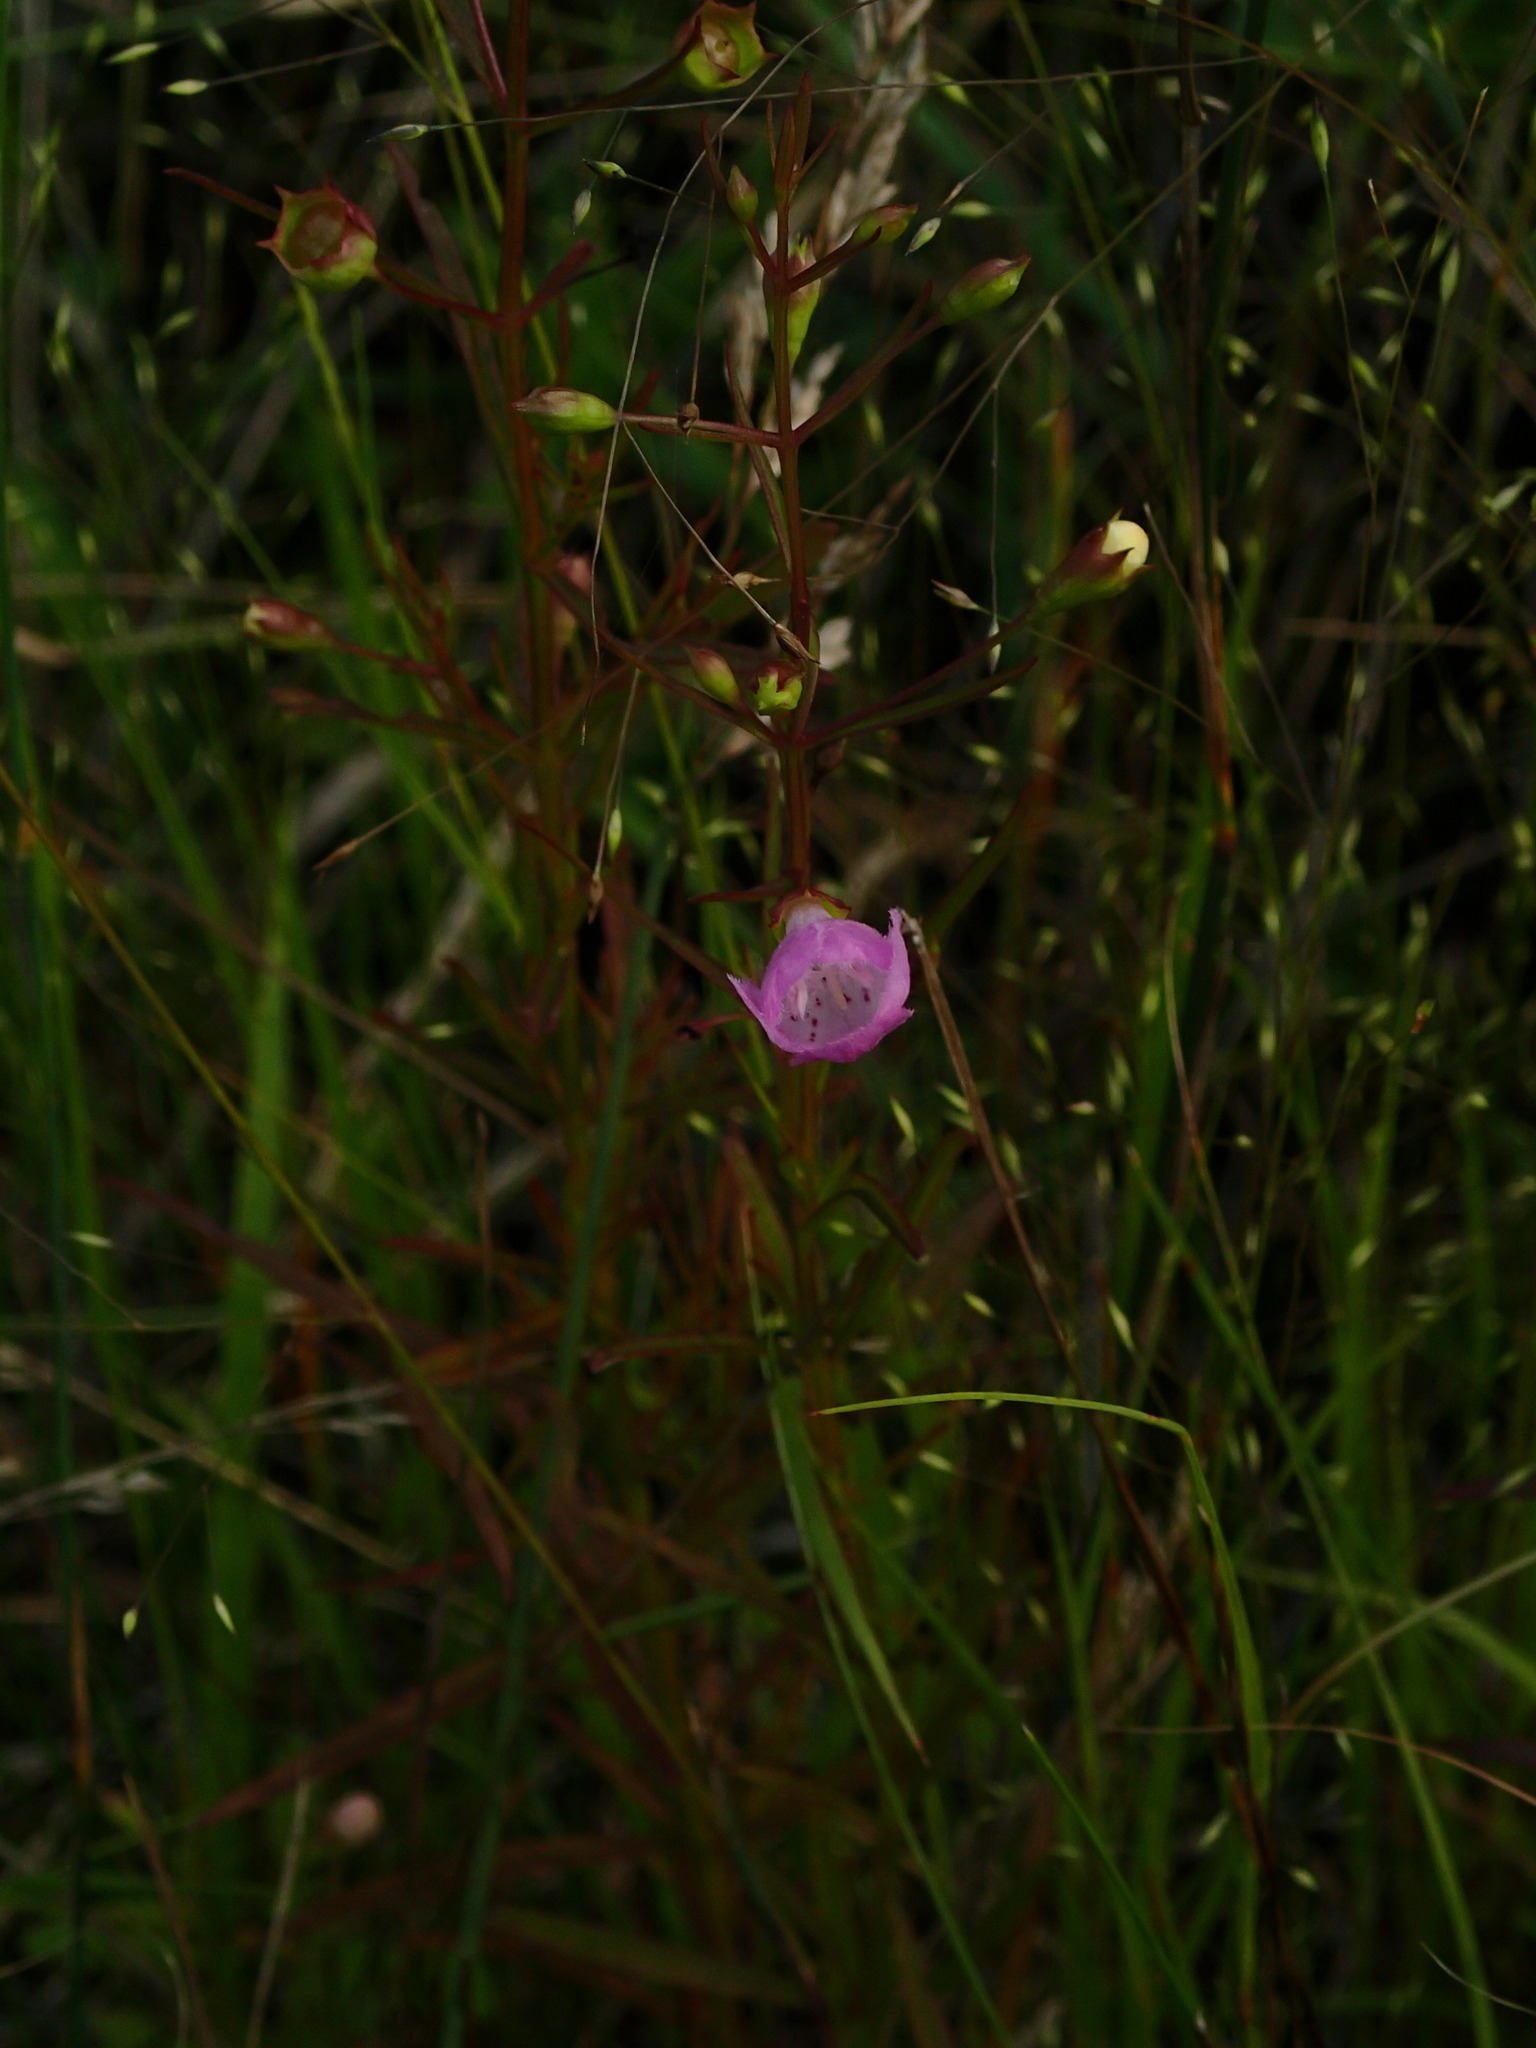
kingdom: Plantae
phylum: Tracheophyta
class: Magnoliopsida
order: Lamiales
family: Orobanchaceae
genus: Agalinis
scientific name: Agalinis tenuifolia
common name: Slender agalinis
